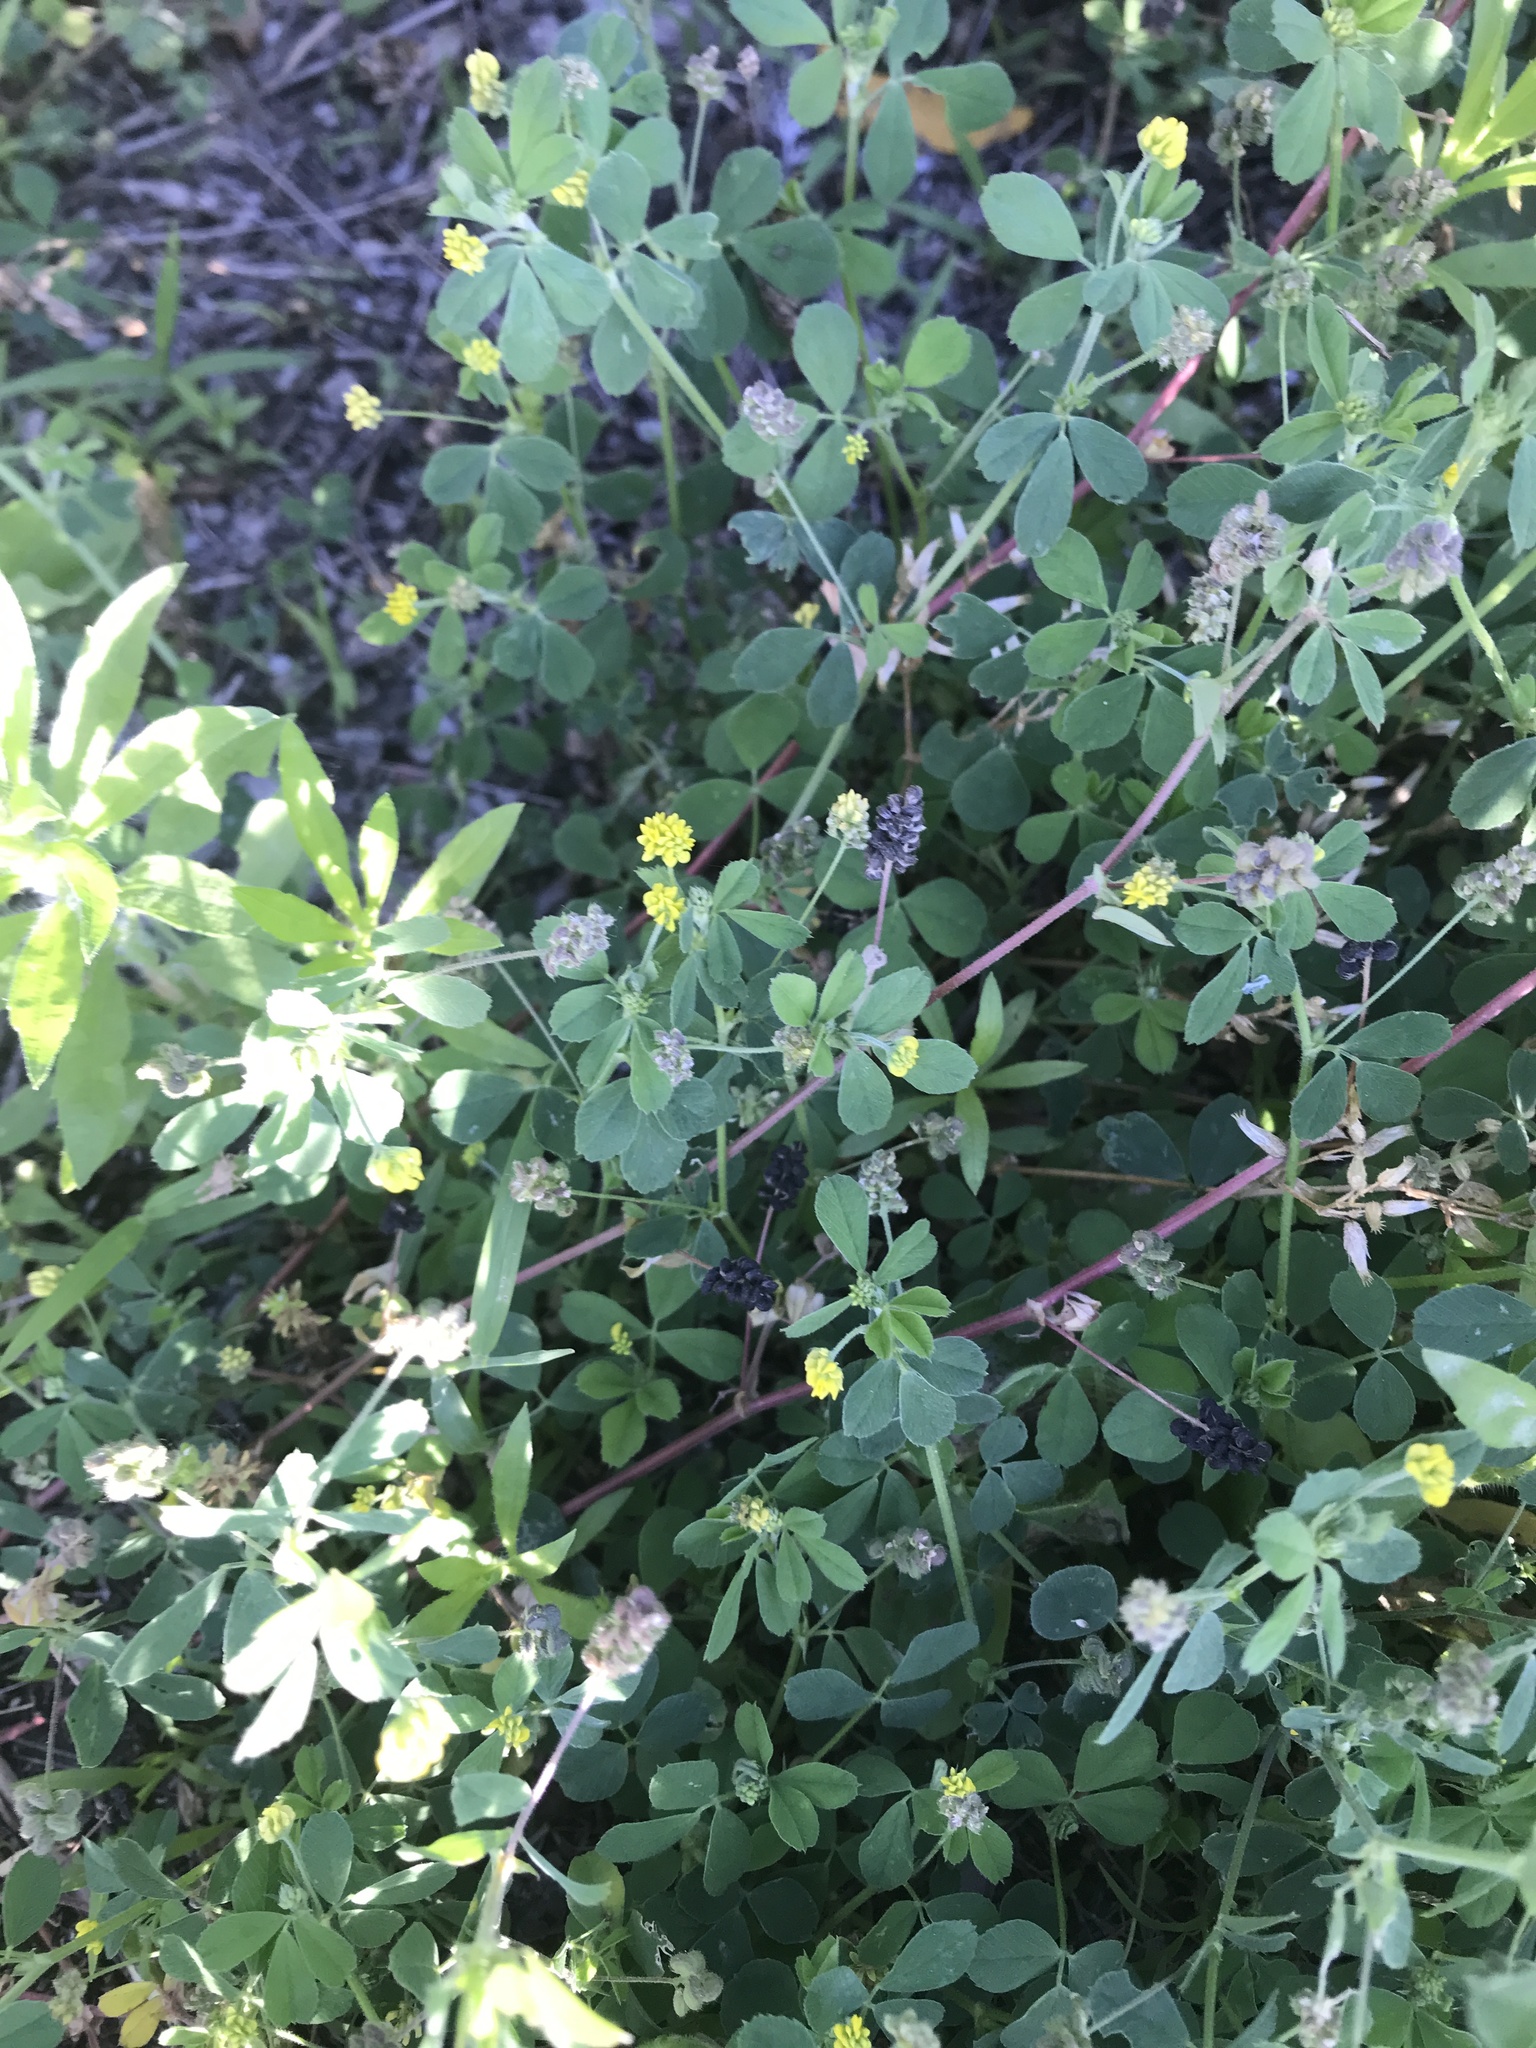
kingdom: Plantae
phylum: Tracheophyta
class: Magnoliopsida
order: Fabales
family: Fabaceae
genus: Medicago
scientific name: Medicago lupulina
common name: Black medick
